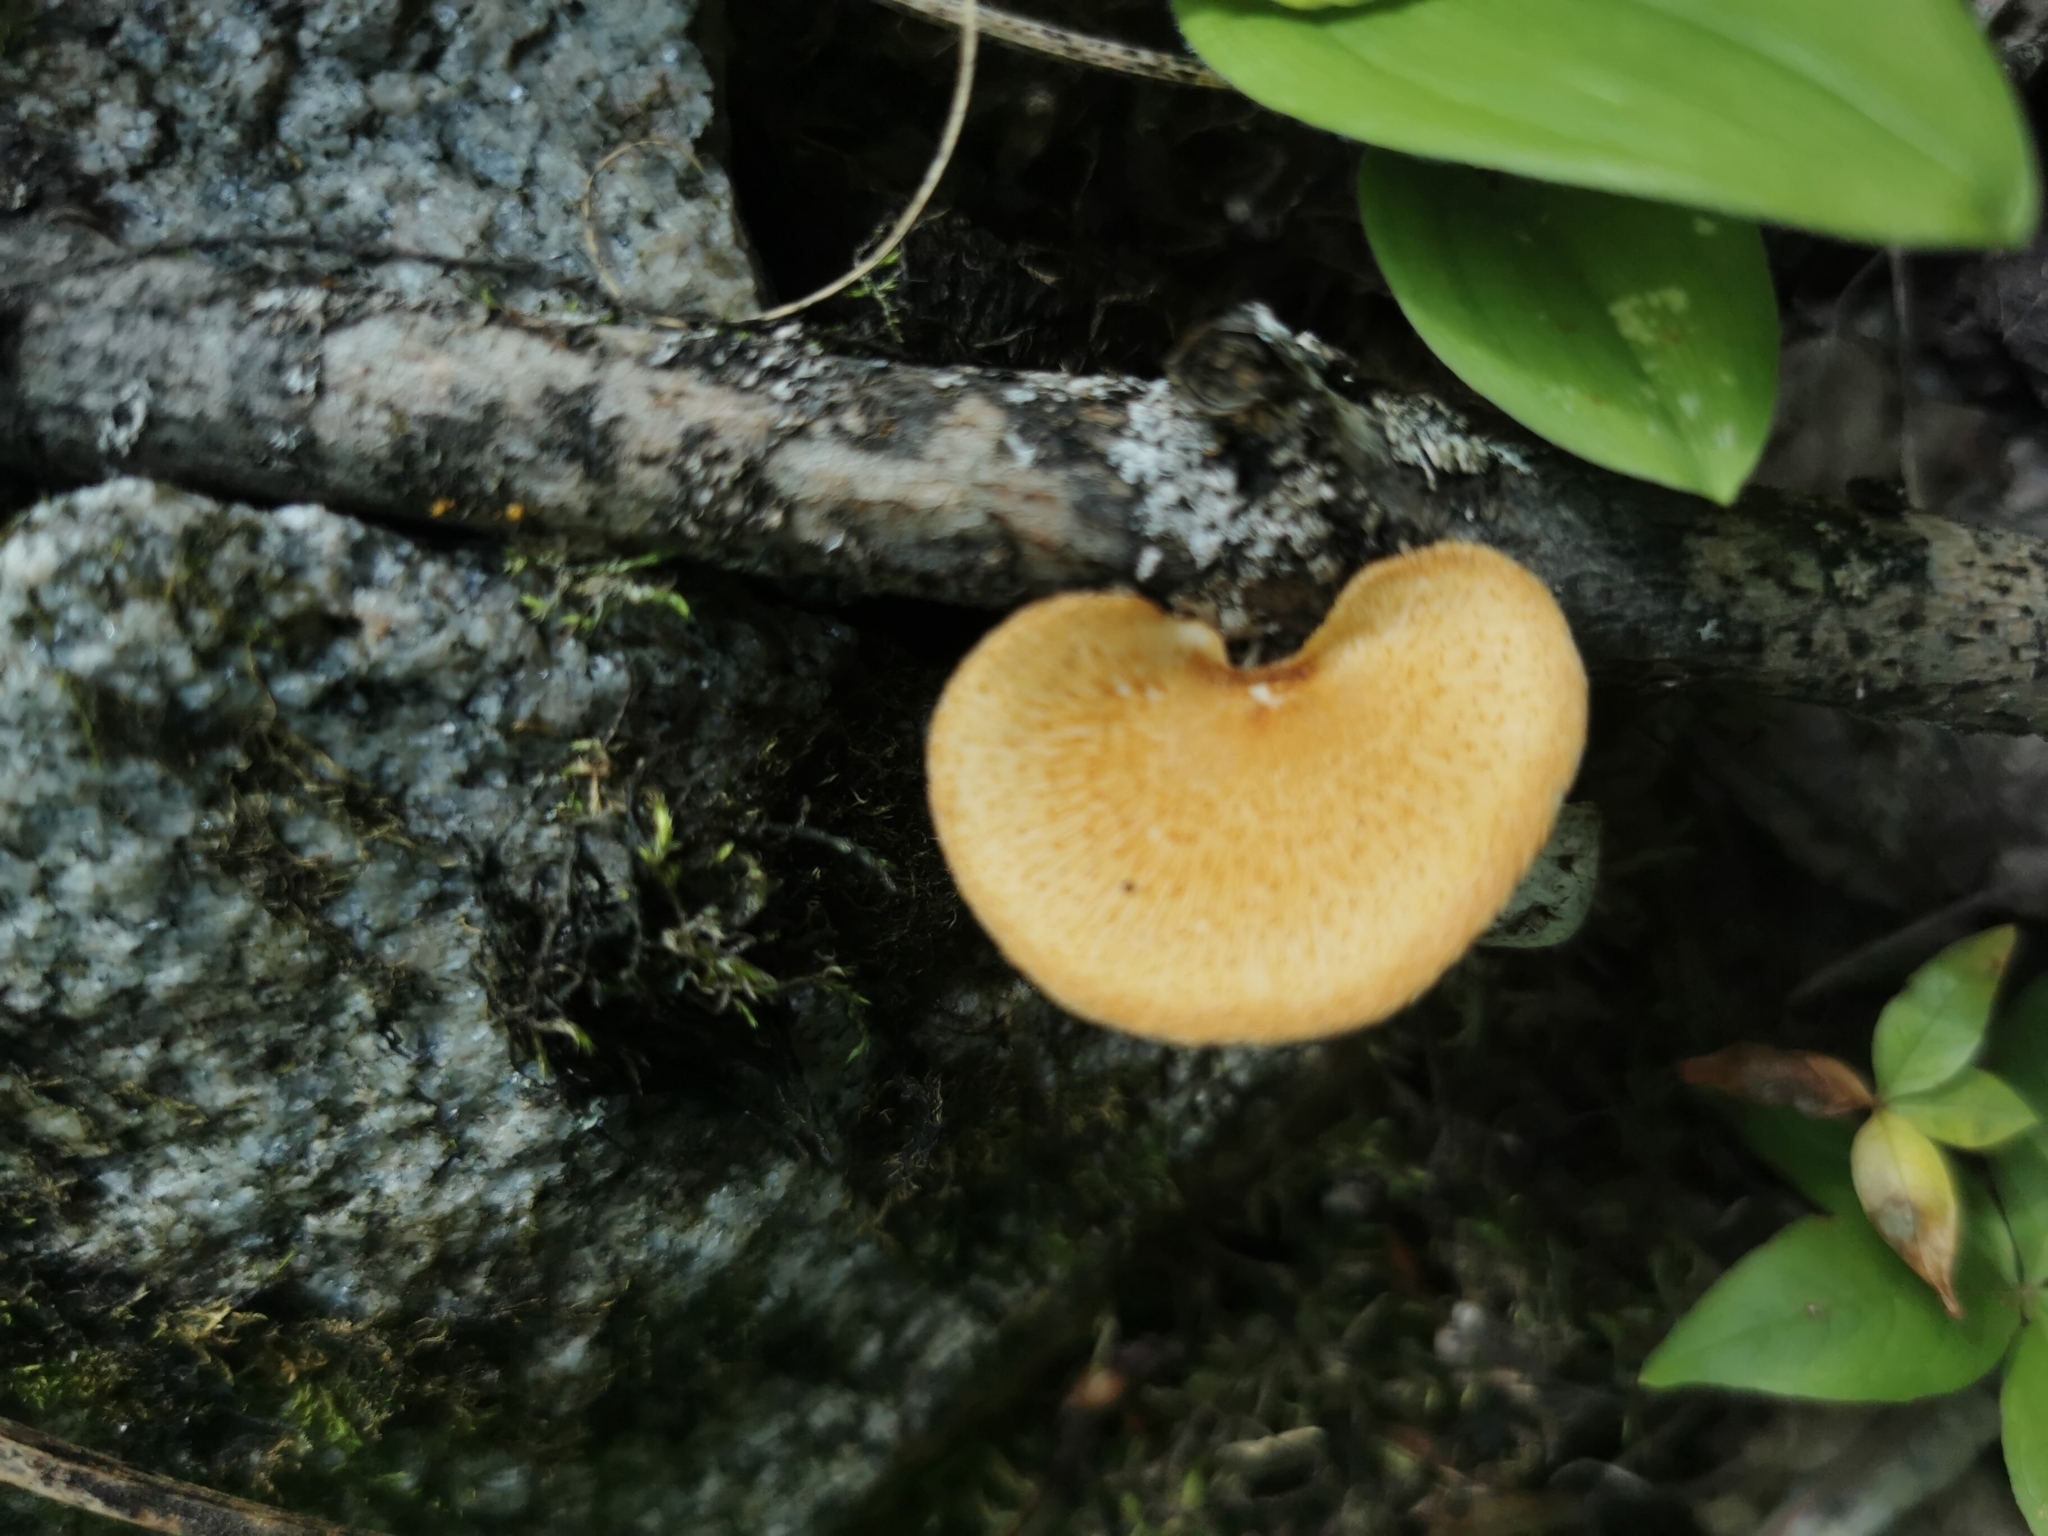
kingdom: Fungi
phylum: Basidiomycota
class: Agaricomycetes
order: Polyporales
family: Polyporaceae
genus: Neofavolus
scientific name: Neofavolus alveolaris
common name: Hexagonal-pored polypore
